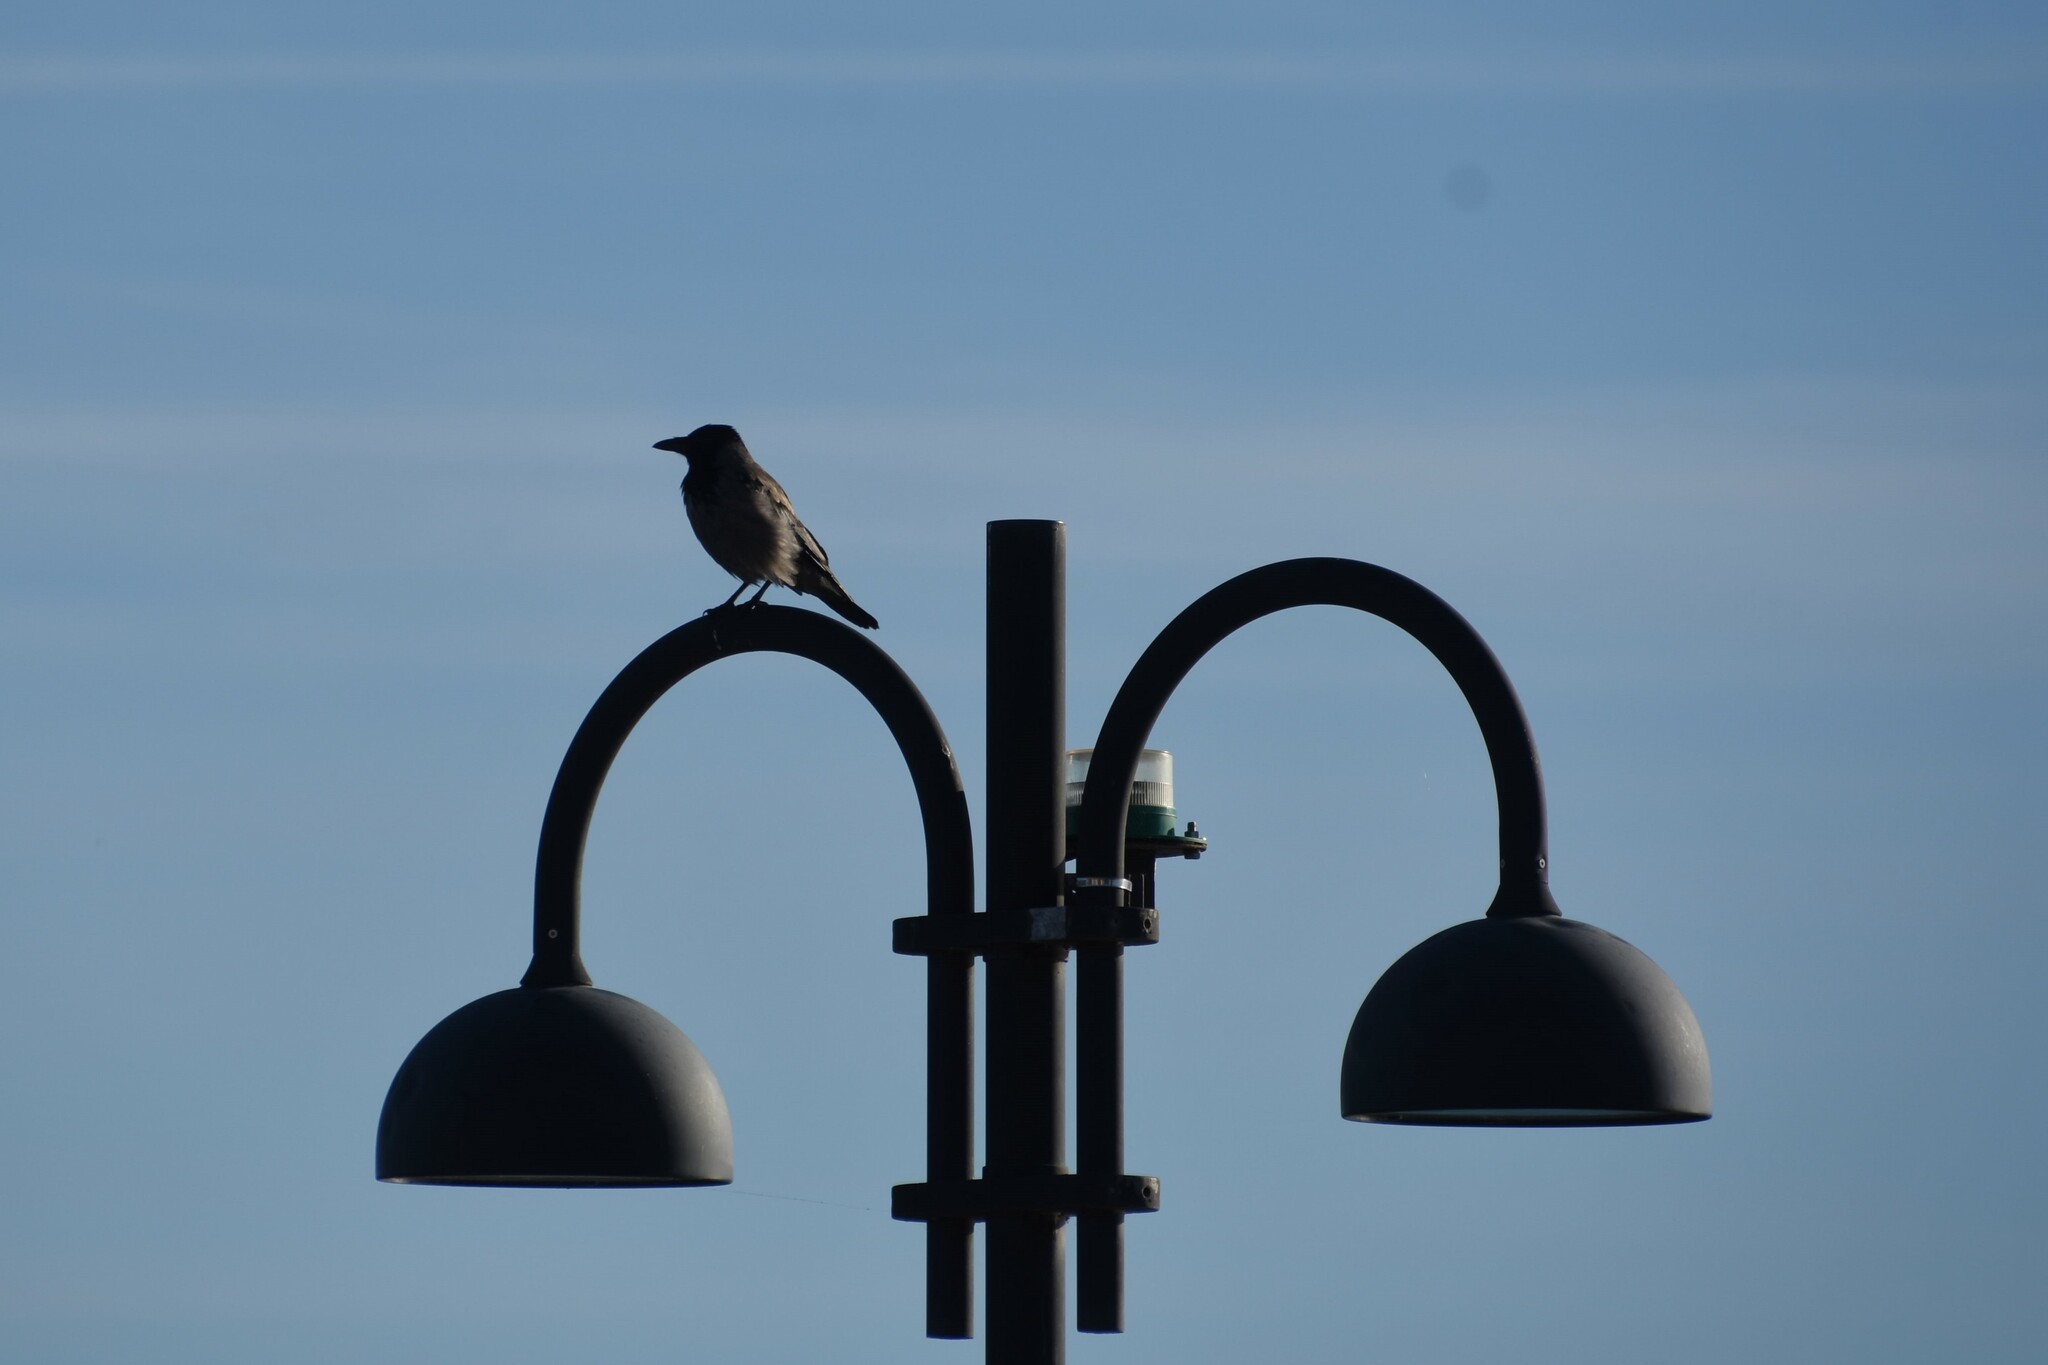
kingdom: Animalia
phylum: Chordata
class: Aves
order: Passeriformes
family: Corvidae
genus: Corvus
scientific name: Corvus cornix
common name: Hooded crow
